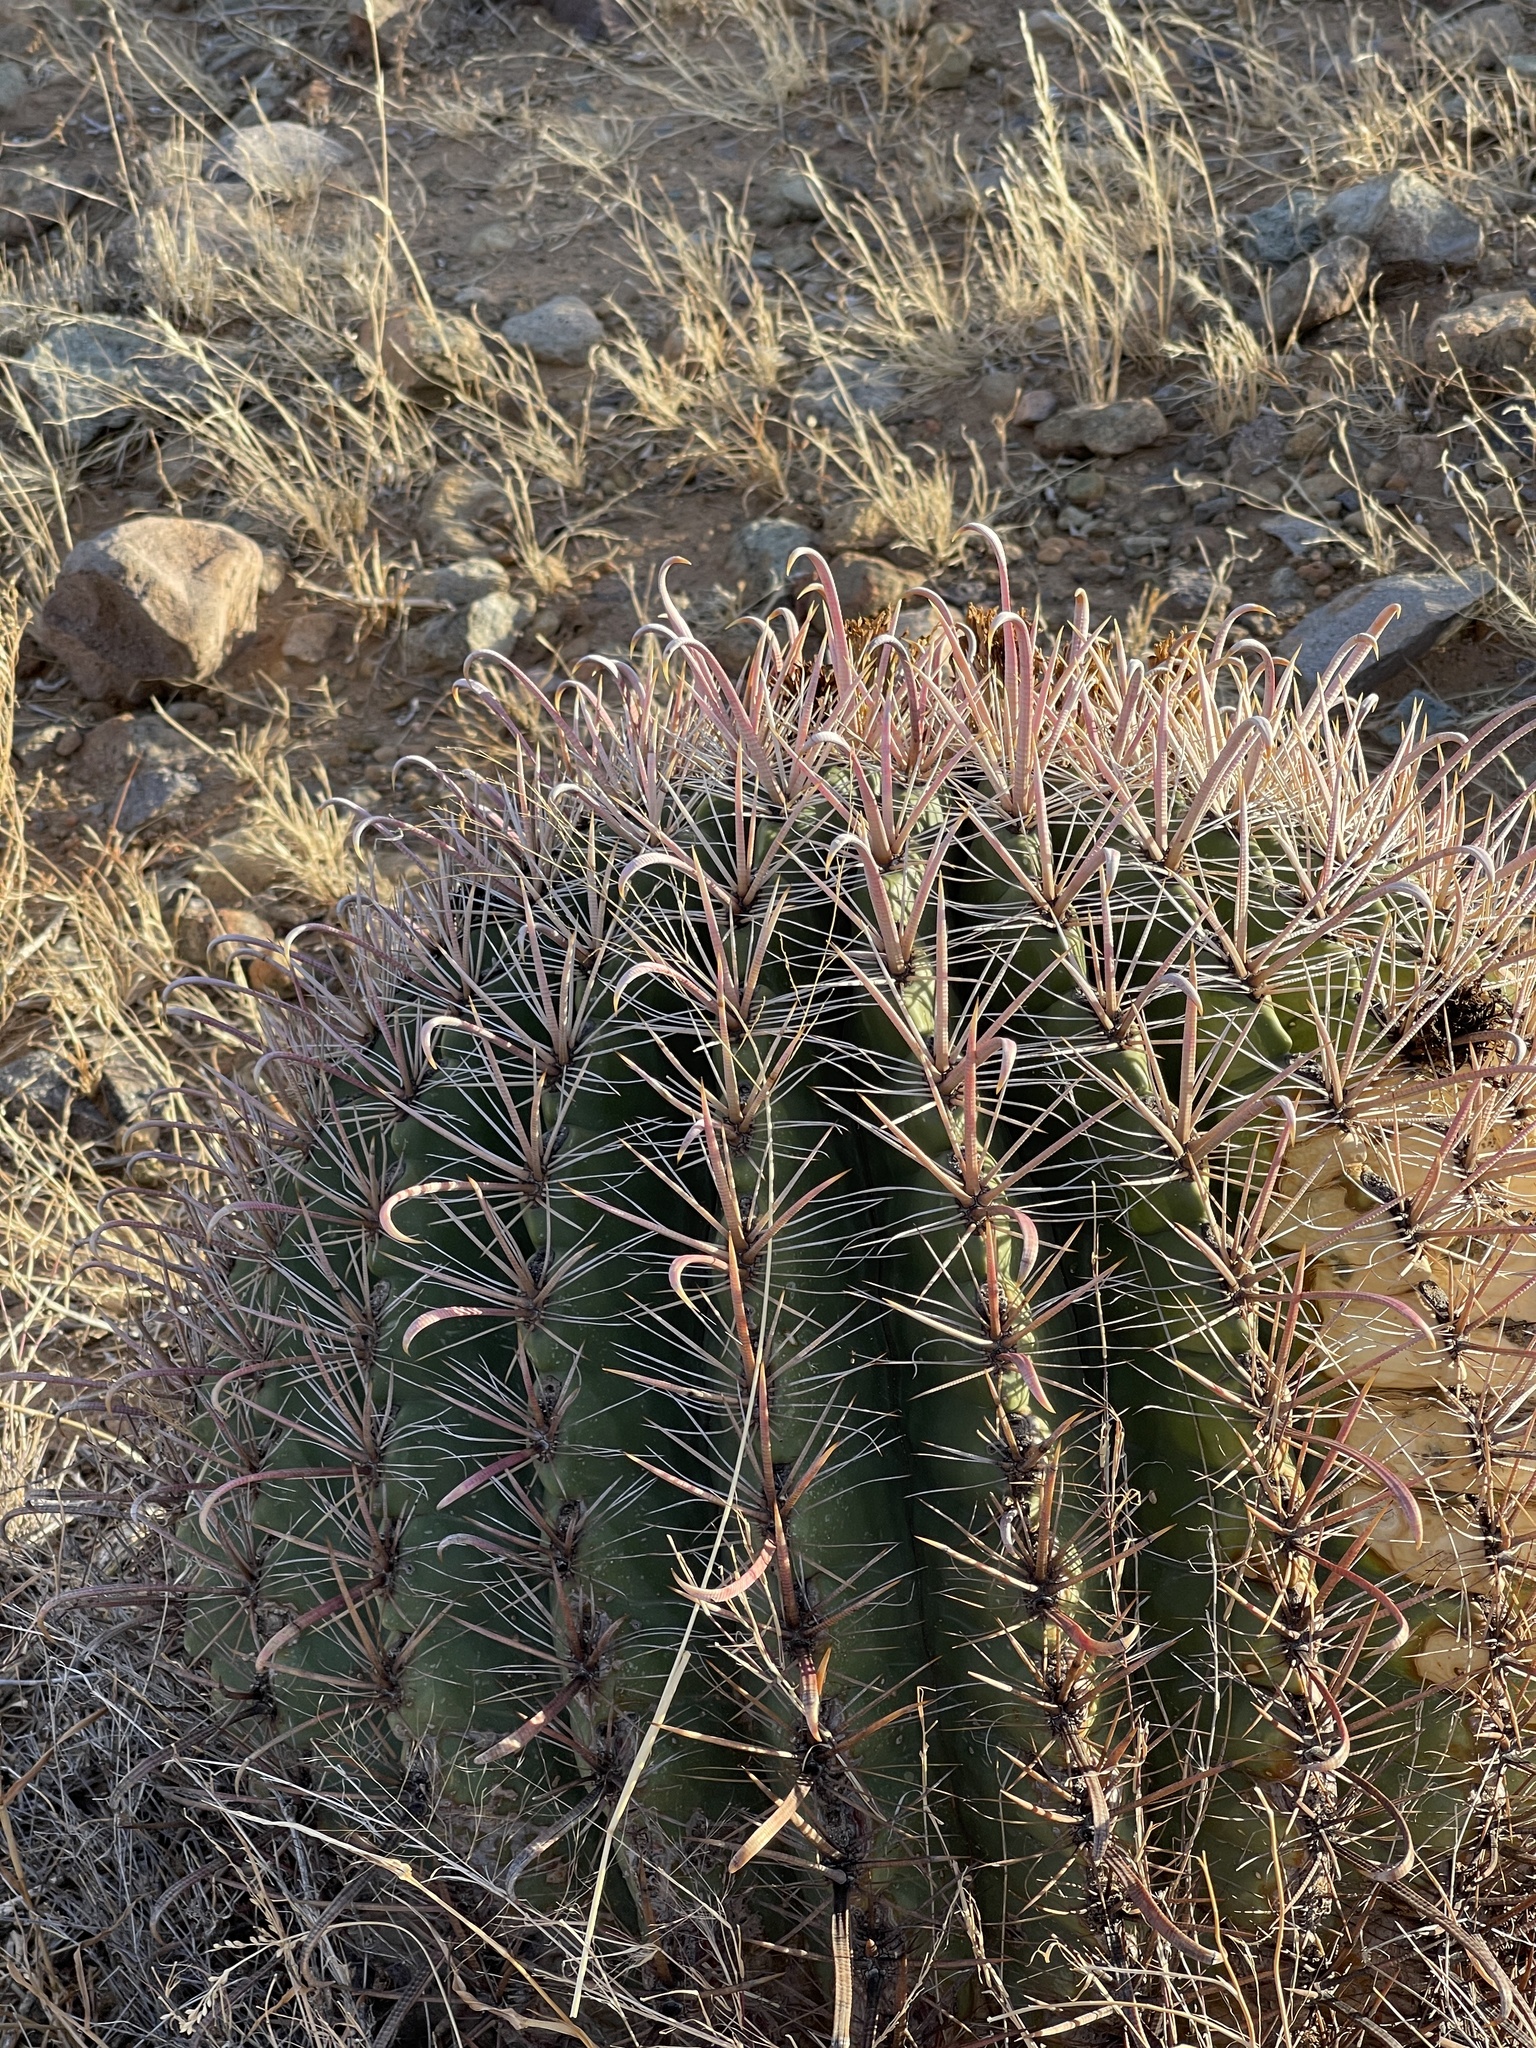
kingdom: Plantae
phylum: Tracheophyta
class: Magnoliopsida
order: Caryophyllales
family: Cactaceae
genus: Ferocactus
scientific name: Ferocactus wislizeni
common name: Candy barrel cactus
